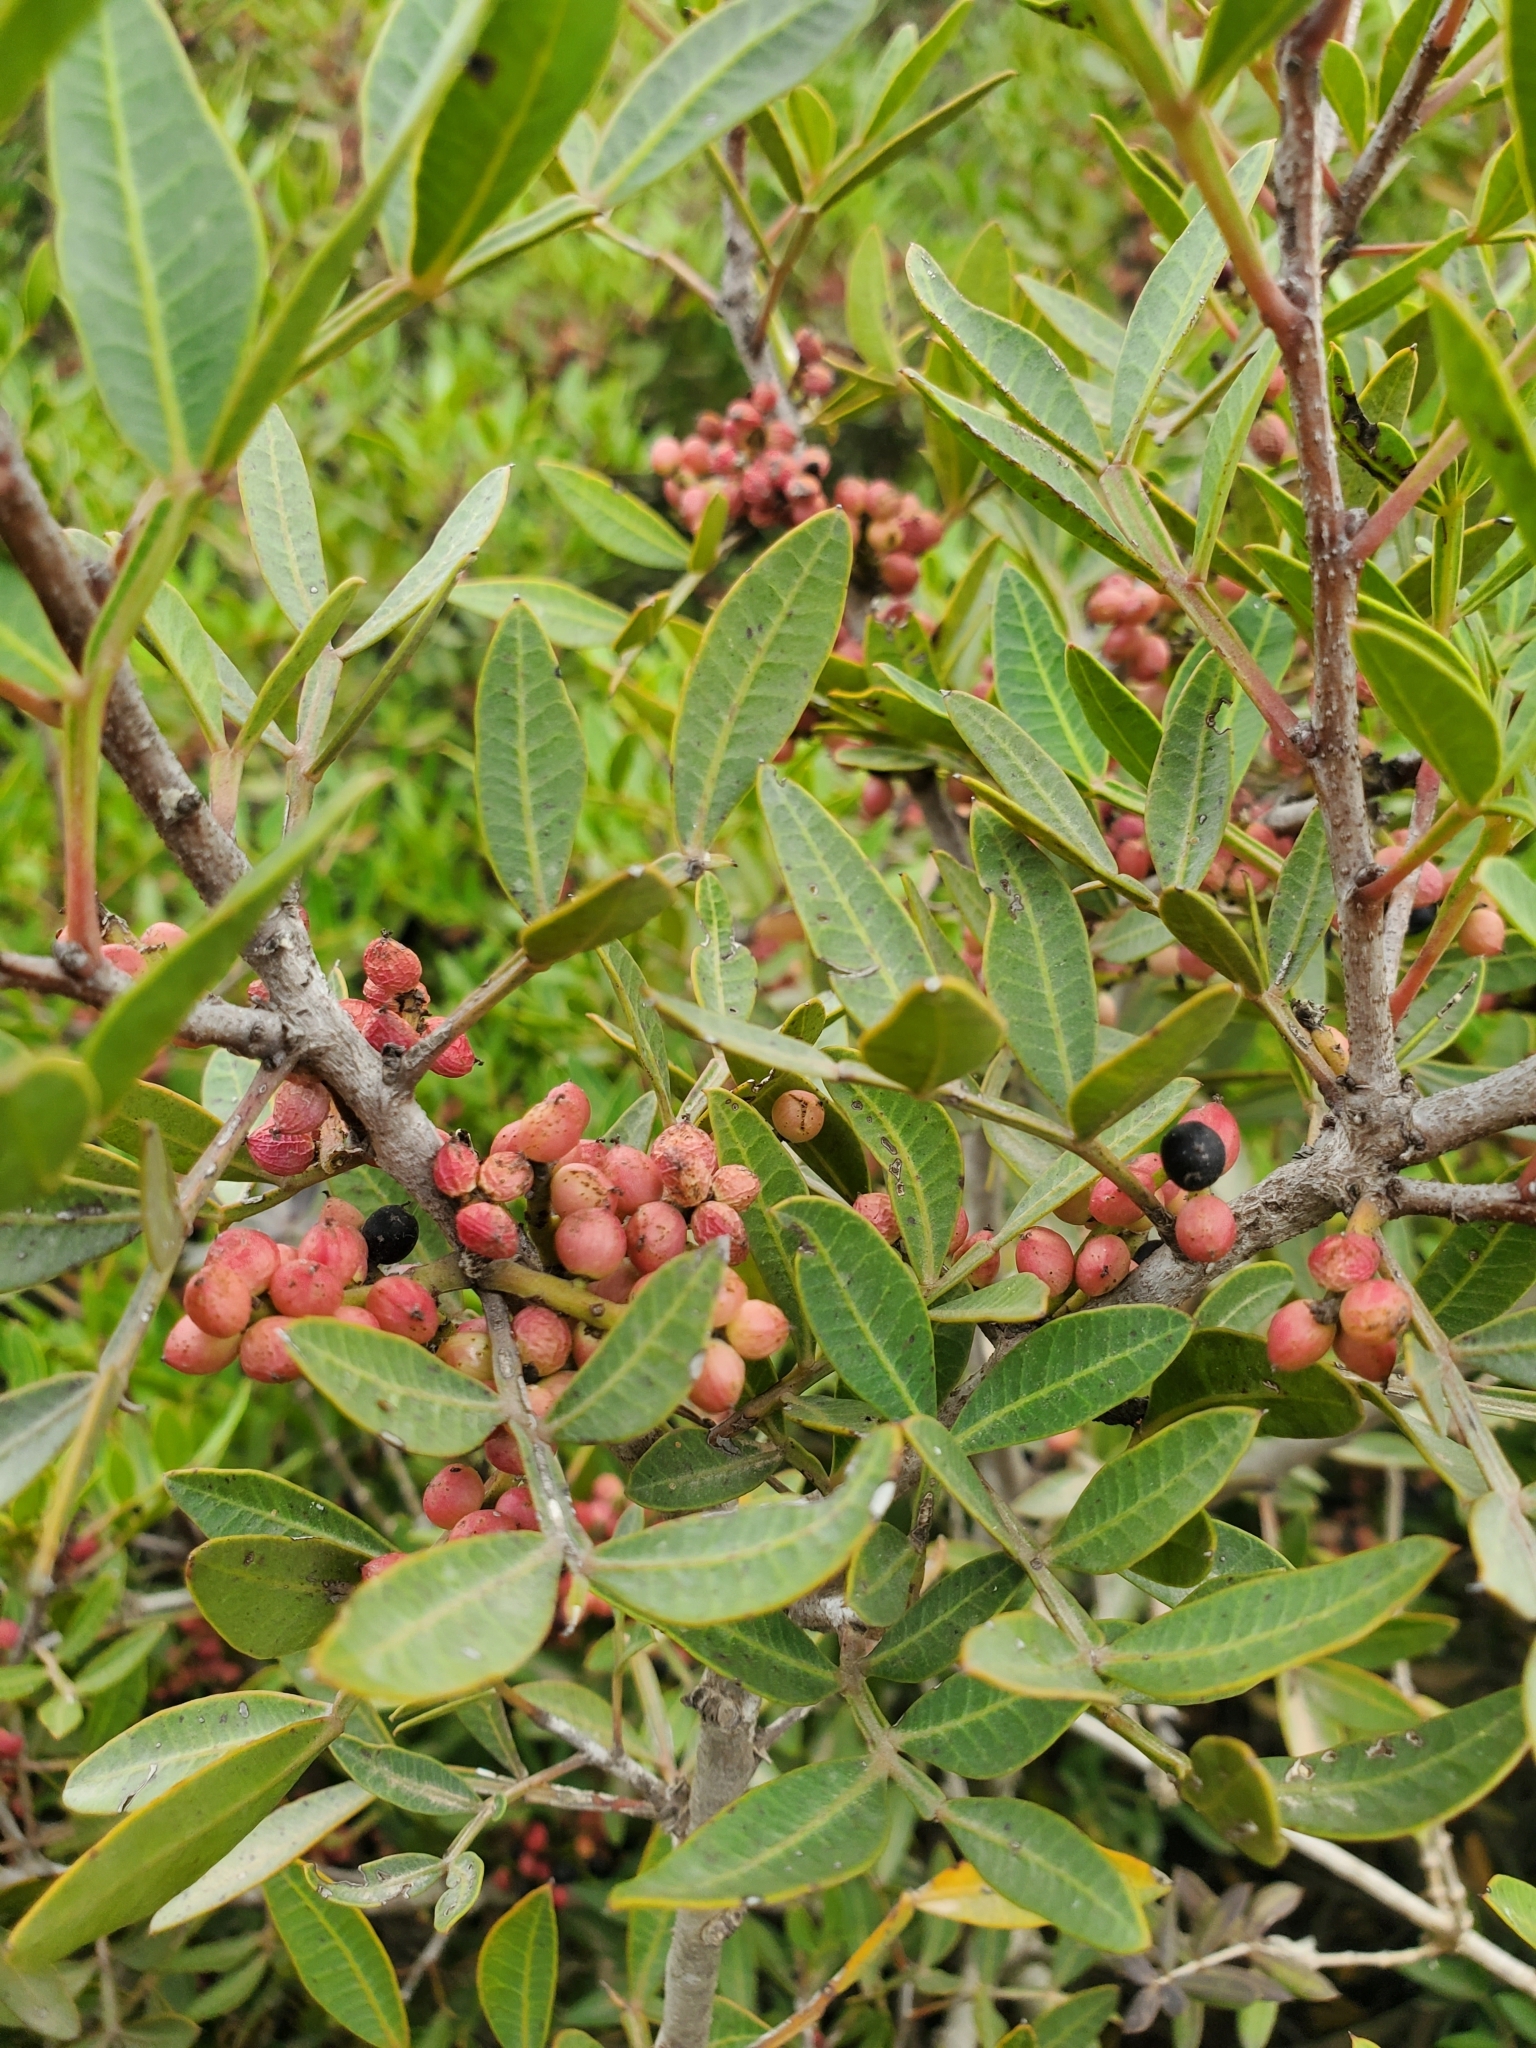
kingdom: Plantae
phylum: Tracheophyta
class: Magnoliopsida
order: Sapindales
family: Anacardiaceae
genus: Pistacia
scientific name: Pistacia lentiscus
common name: Lentisk
